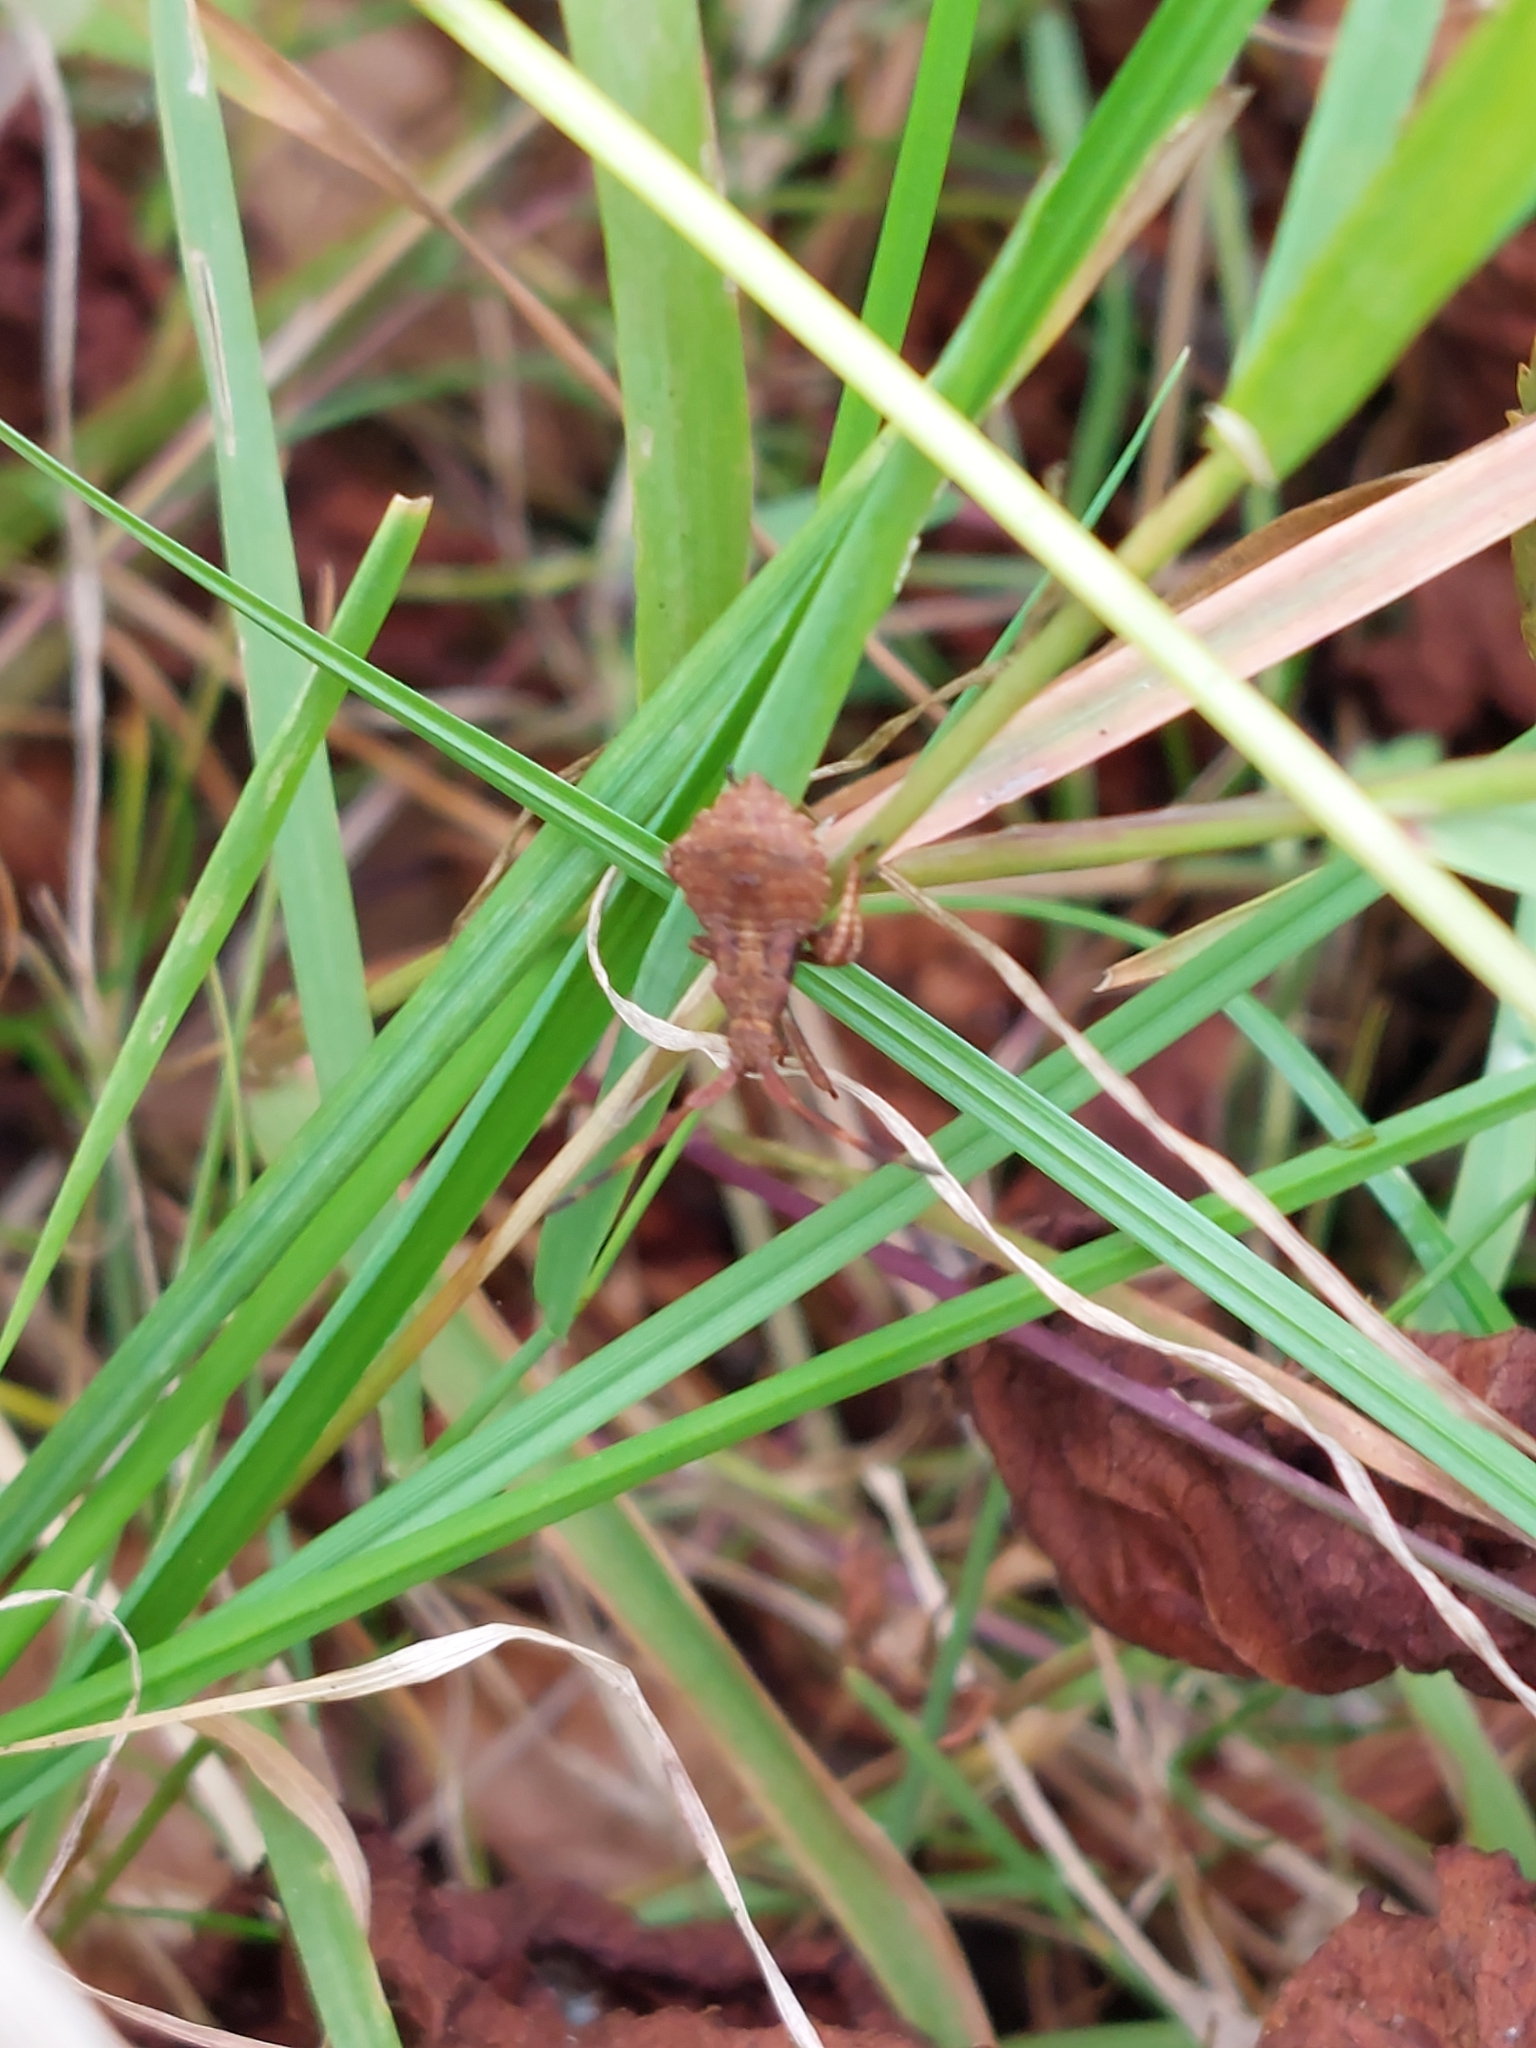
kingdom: Animalia
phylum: Arthropoda
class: Insecta
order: Hemiptera
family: Coreidae
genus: Coreus
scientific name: Coreus marginatus
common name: Dock bug
